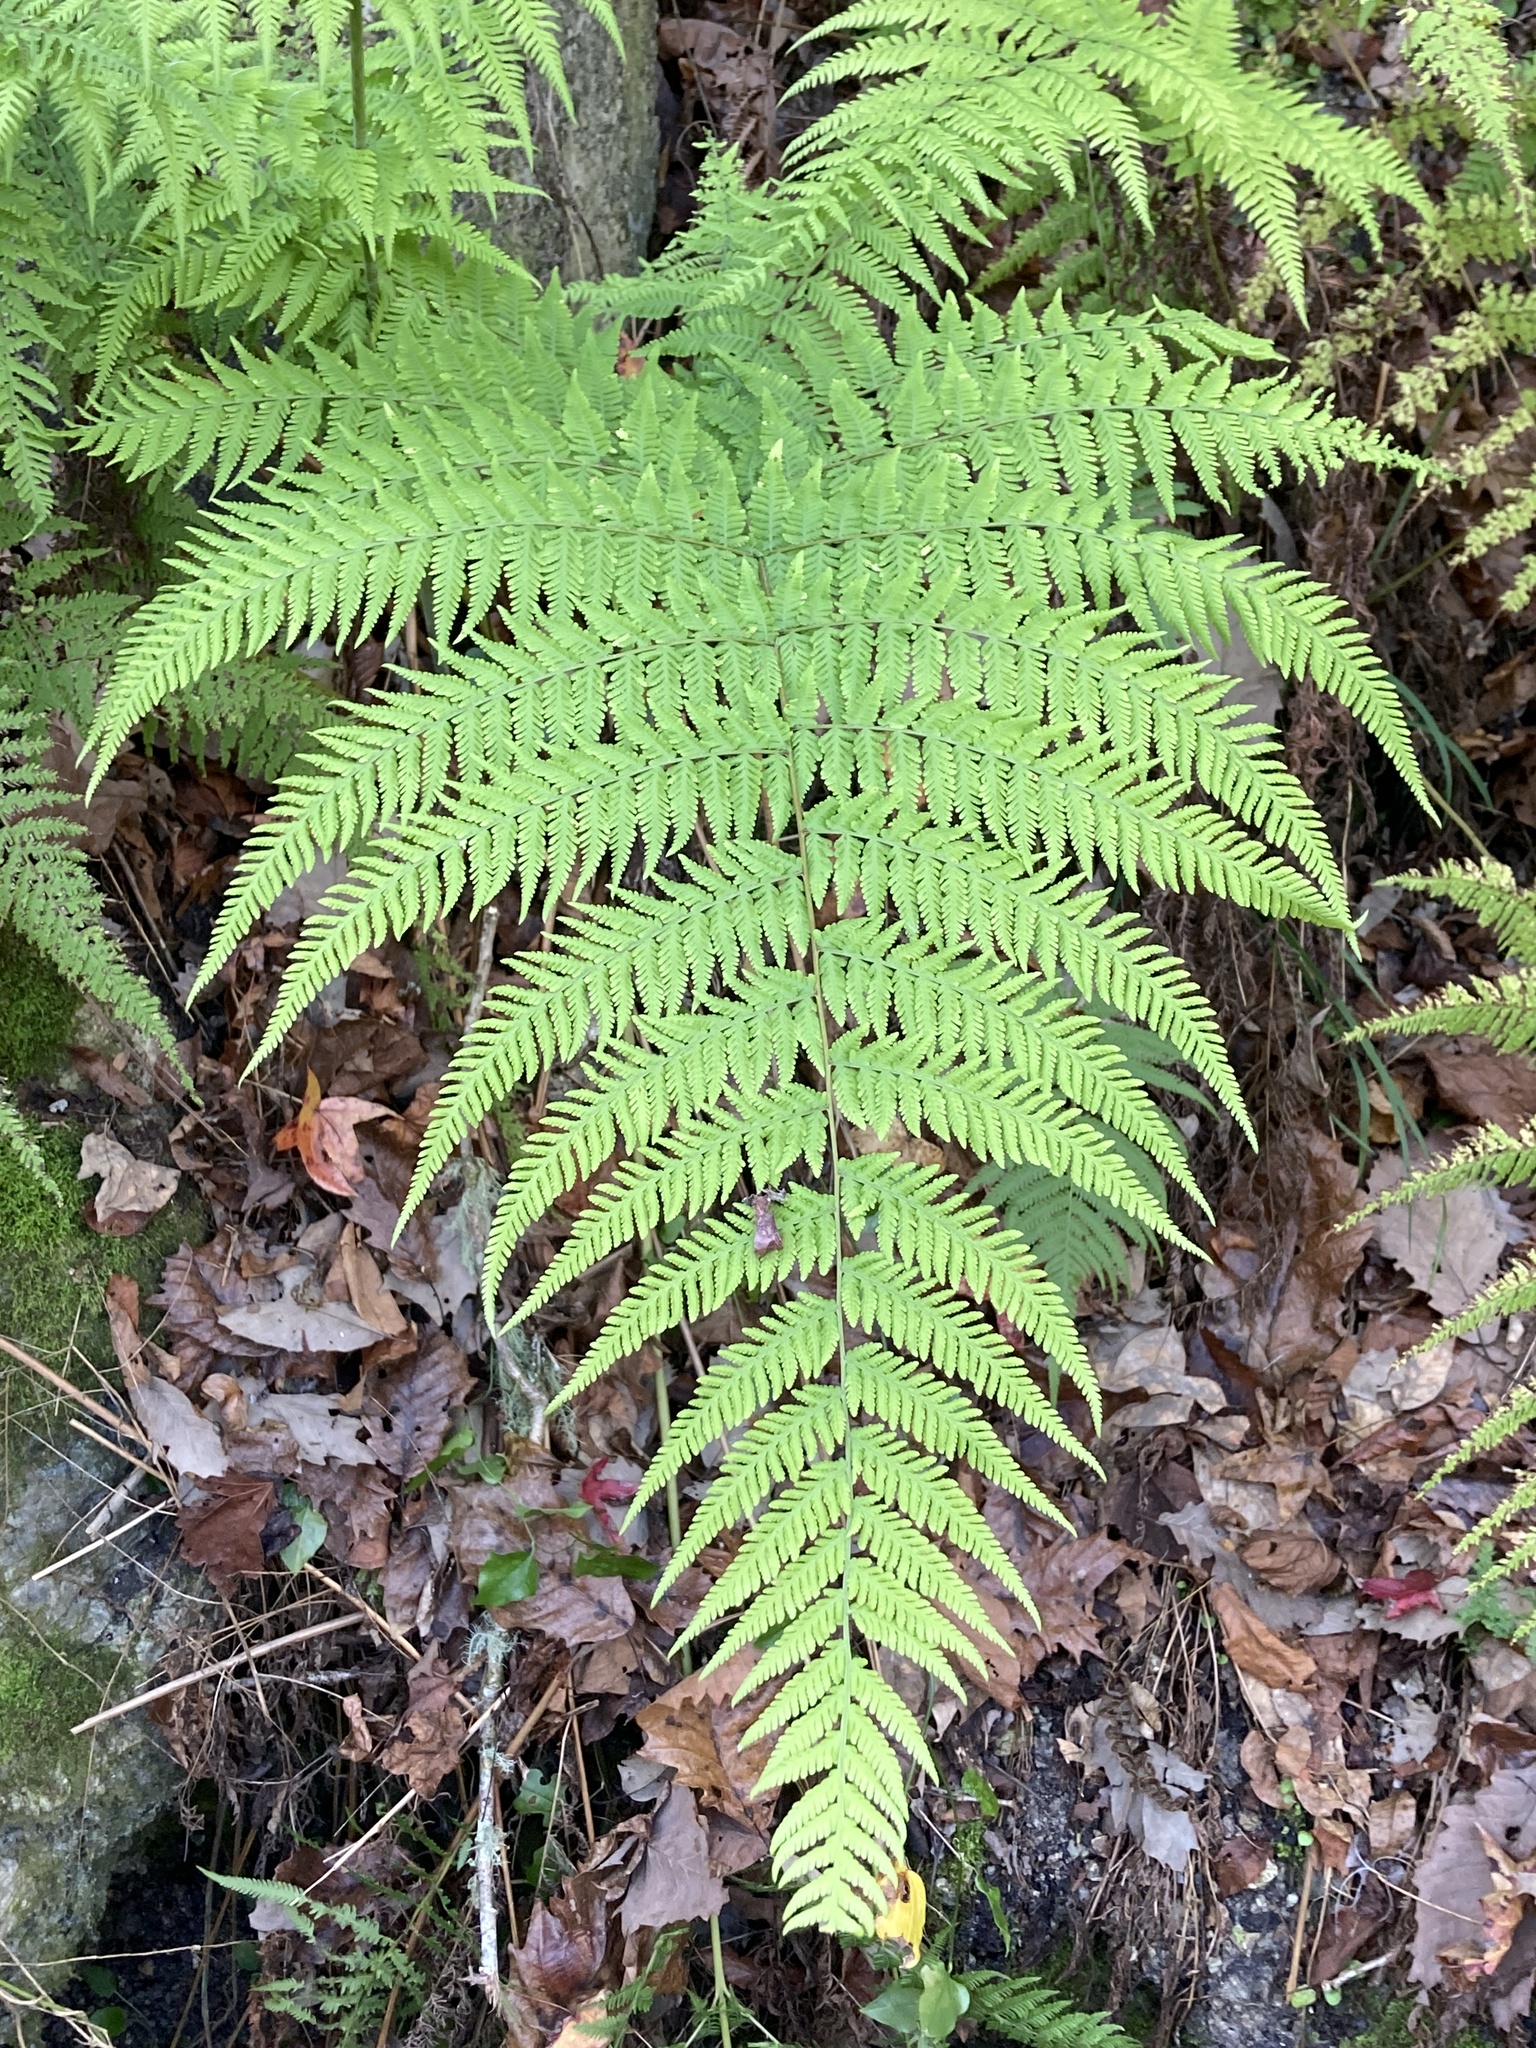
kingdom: Plantae
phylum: Tracheophyta
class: Polypodiopsida
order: Polypodiales
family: Thelypteridaceae
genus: Macrothelypteris
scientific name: Macrothelypteris torresiana
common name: Swordfern
